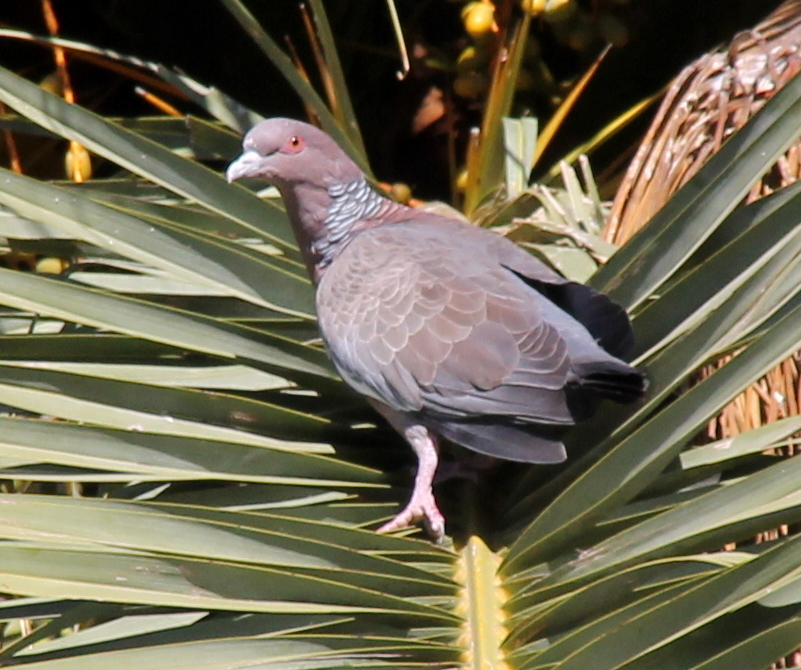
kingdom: Animalia
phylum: Chordata
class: Aves
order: Columbiformes
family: Columbidae
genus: Patagioenas
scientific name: Patagioenas picazuro
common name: Picazuro pigeon
